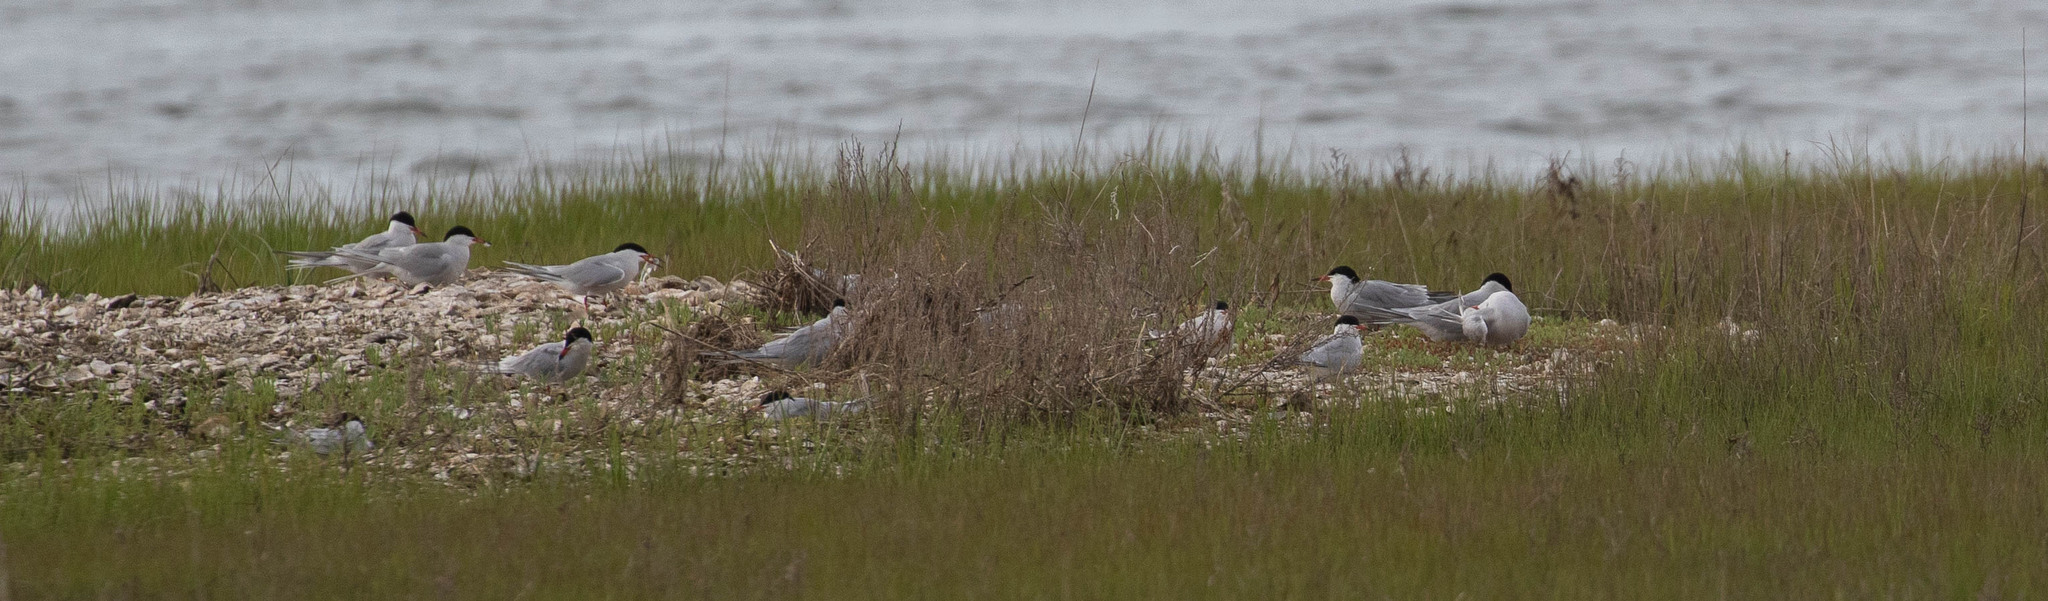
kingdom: Animalia
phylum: Chordata
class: Aves
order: Charadriiformes
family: Laridae
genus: Sterna
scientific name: Sterna forsteri
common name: Forster's tern
